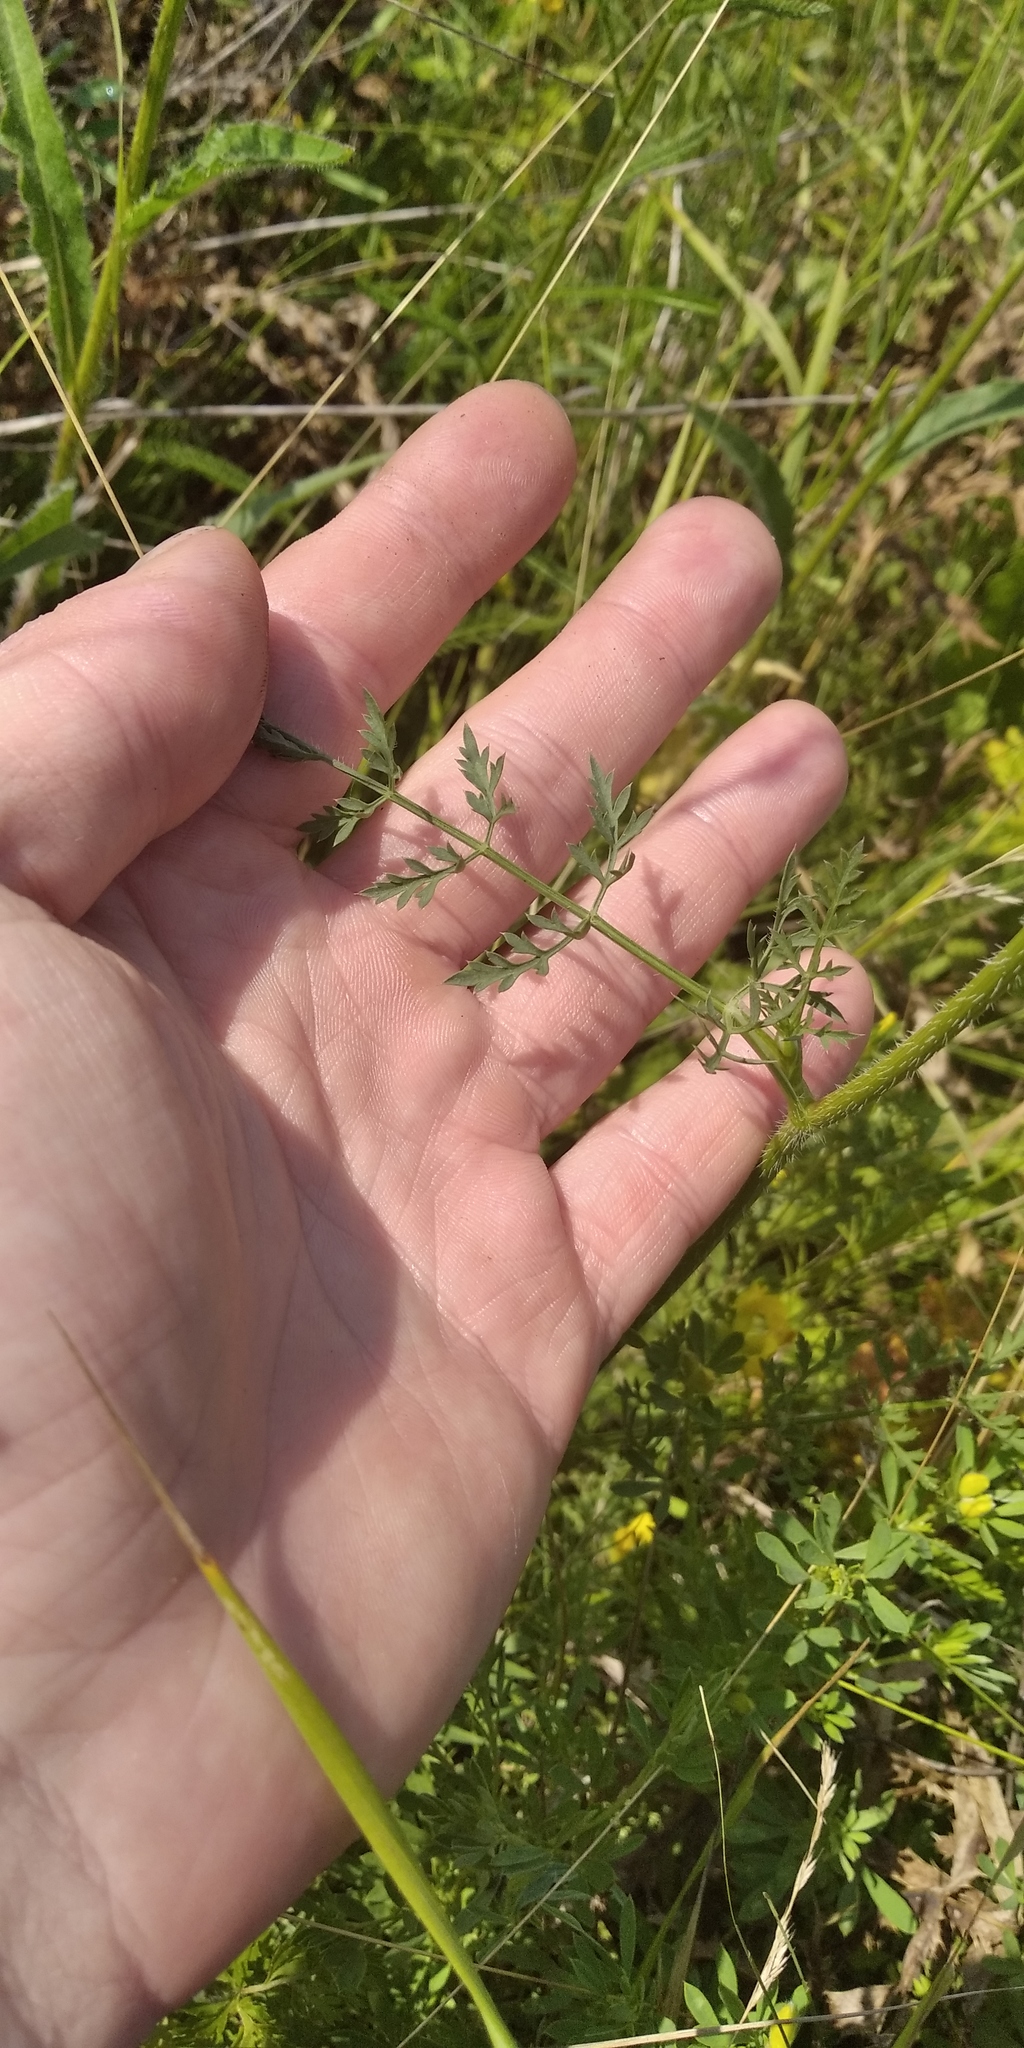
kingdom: Plantae
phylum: Tracheophyta
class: Magnoliopsida
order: Apiales
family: Apiaceae
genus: Daucus
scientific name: Daucus carota
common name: Wild carrot
